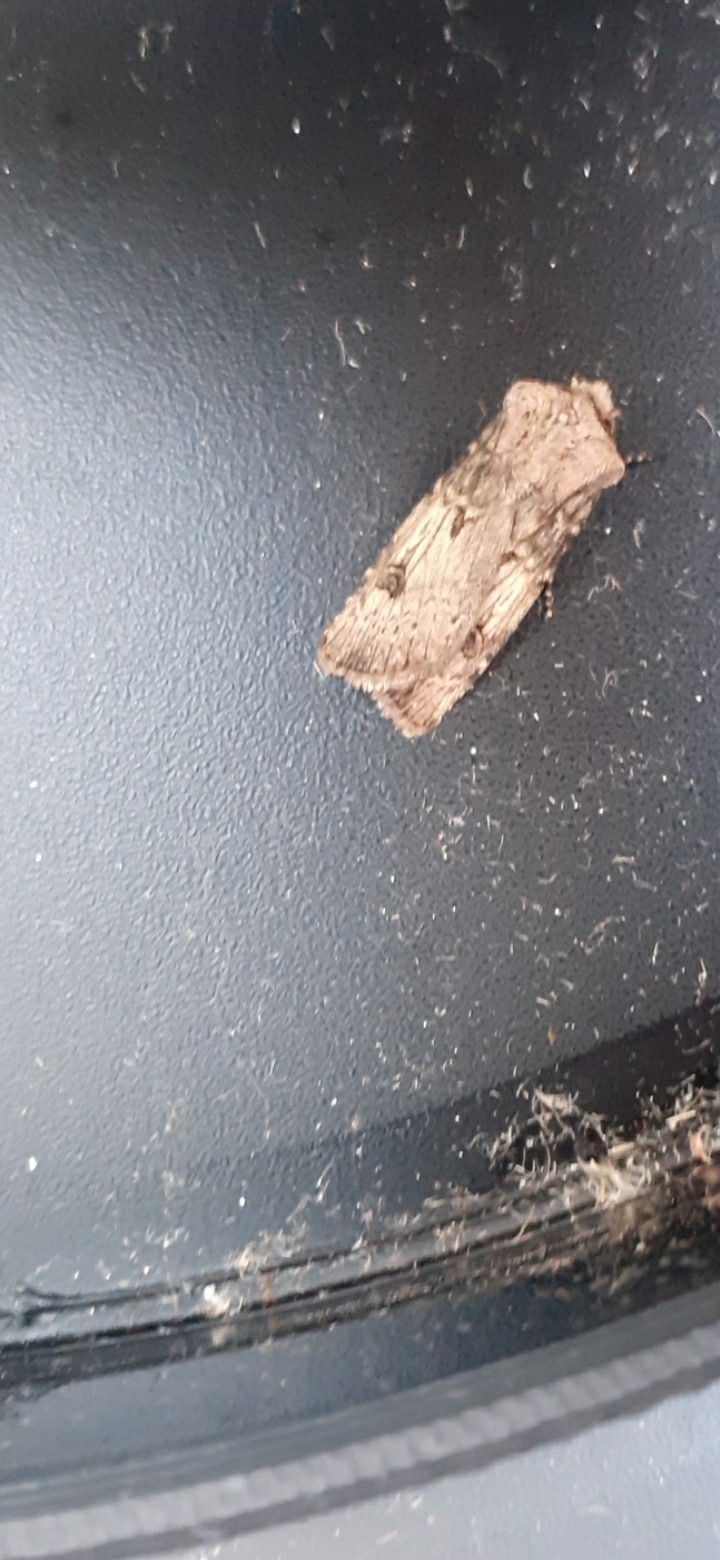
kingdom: Animalia
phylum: Arthropoda
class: Insecta
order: Lepidoptera
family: Noctuidae
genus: Agrotis
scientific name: Agrotis puta
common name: Shuttle-shaped dart
